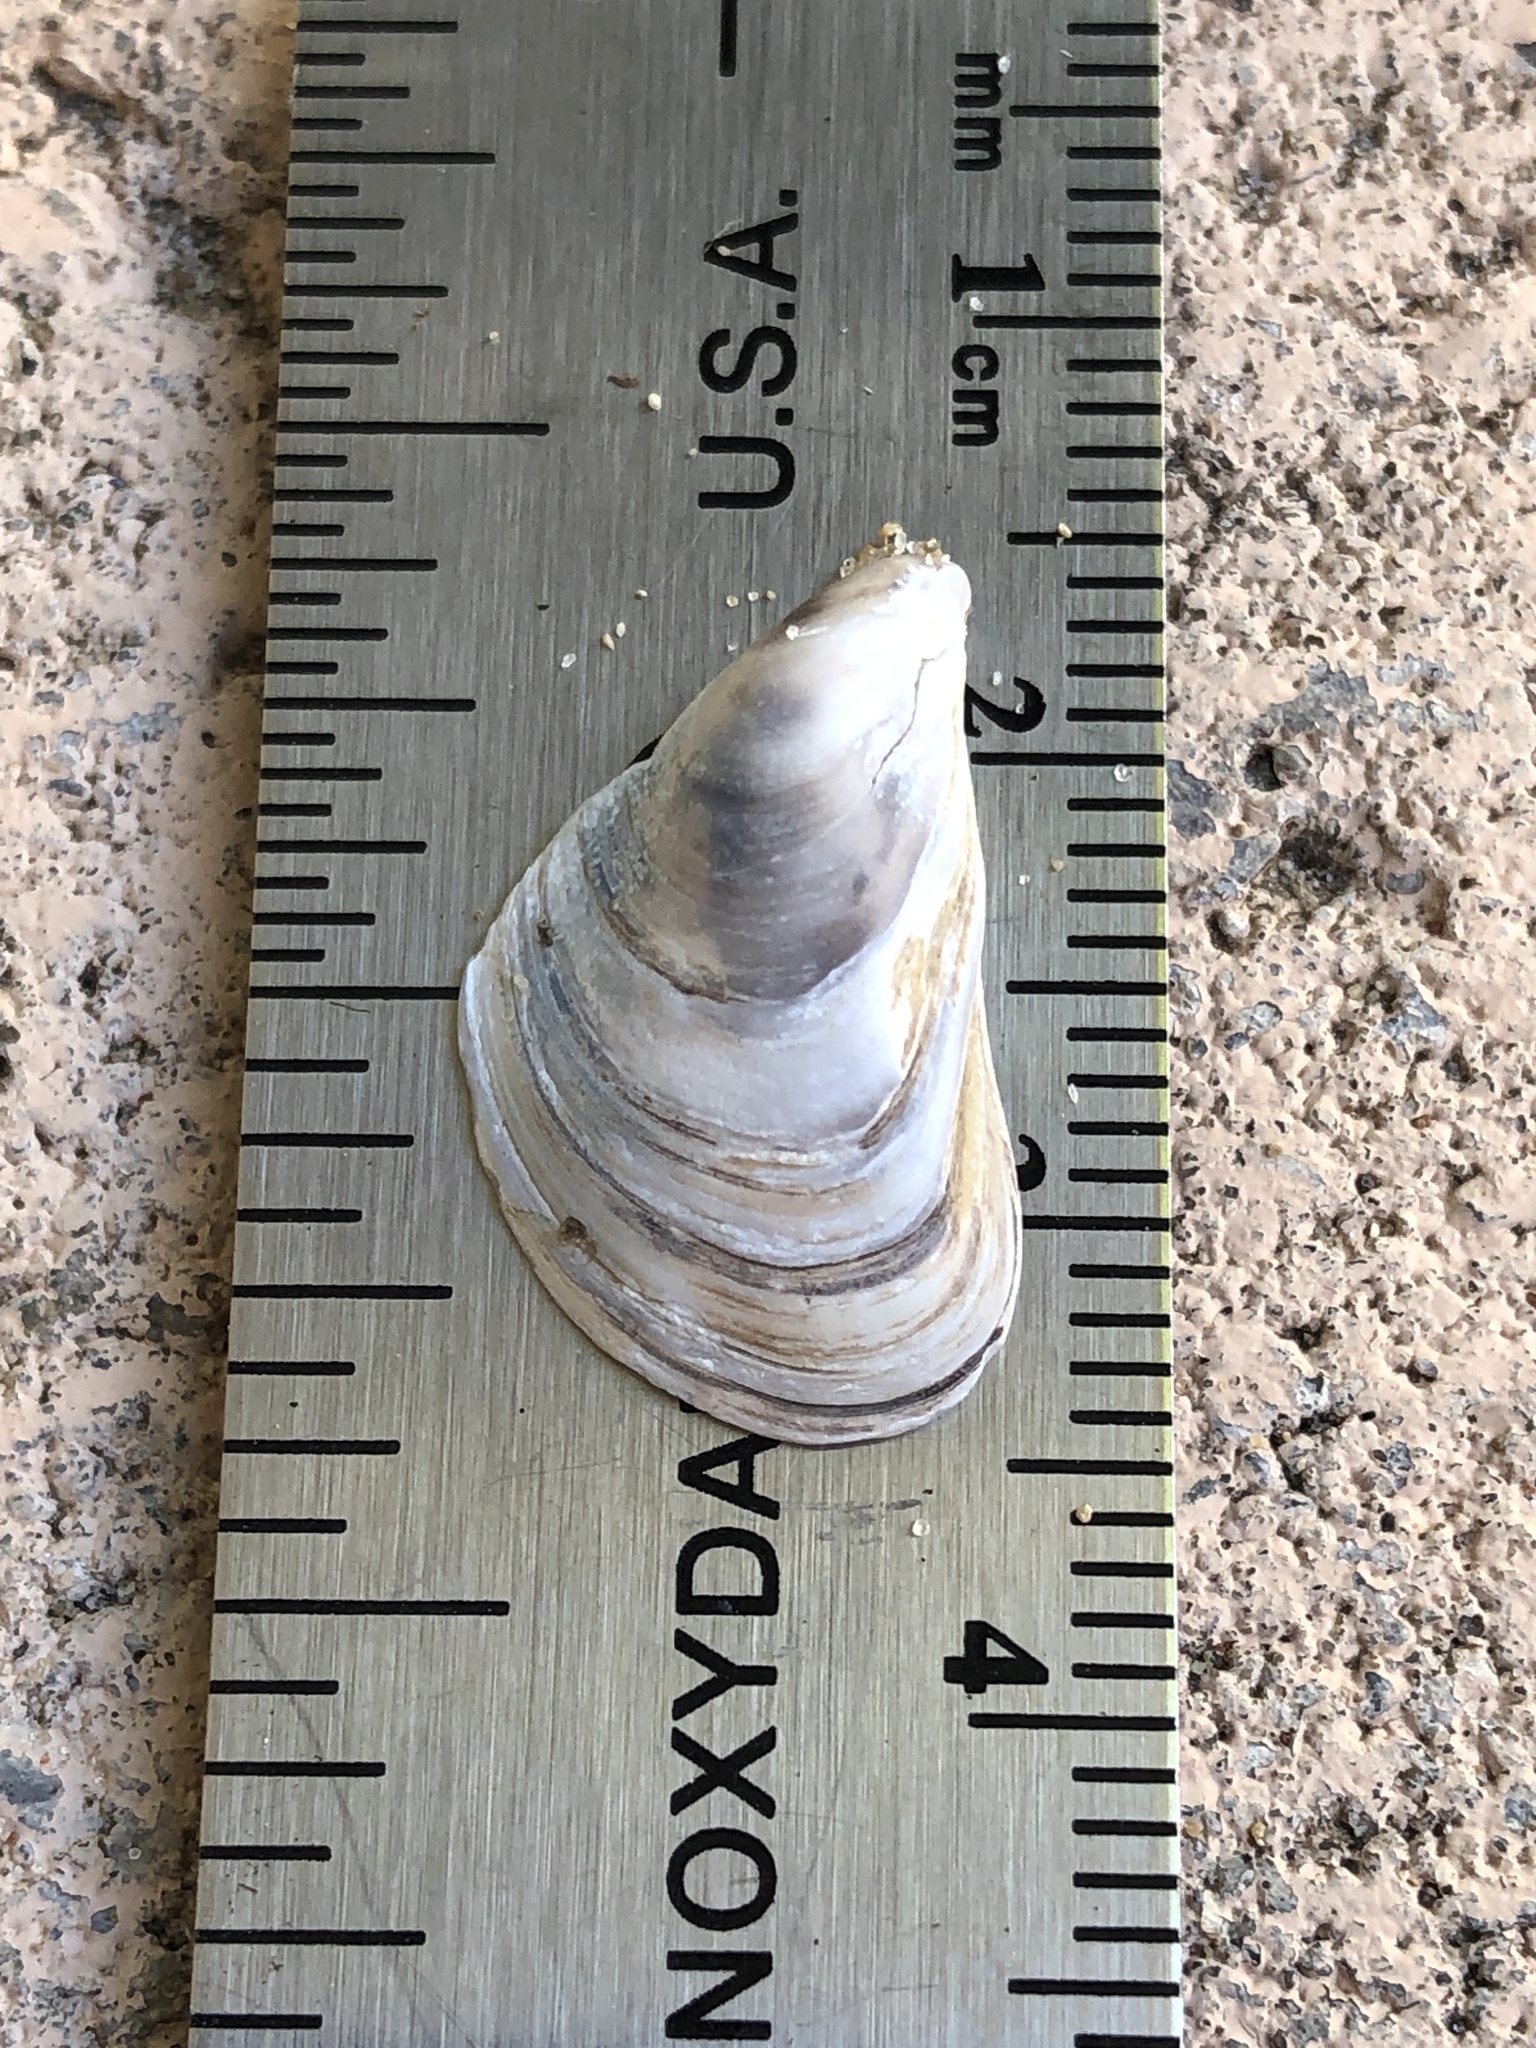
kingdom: Animalia
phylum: Mollusca
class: Bivalvia
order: Myida
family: Dreissenidae
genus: Dreissena
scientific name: Dreissena bugensis
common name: Quagga mussel
